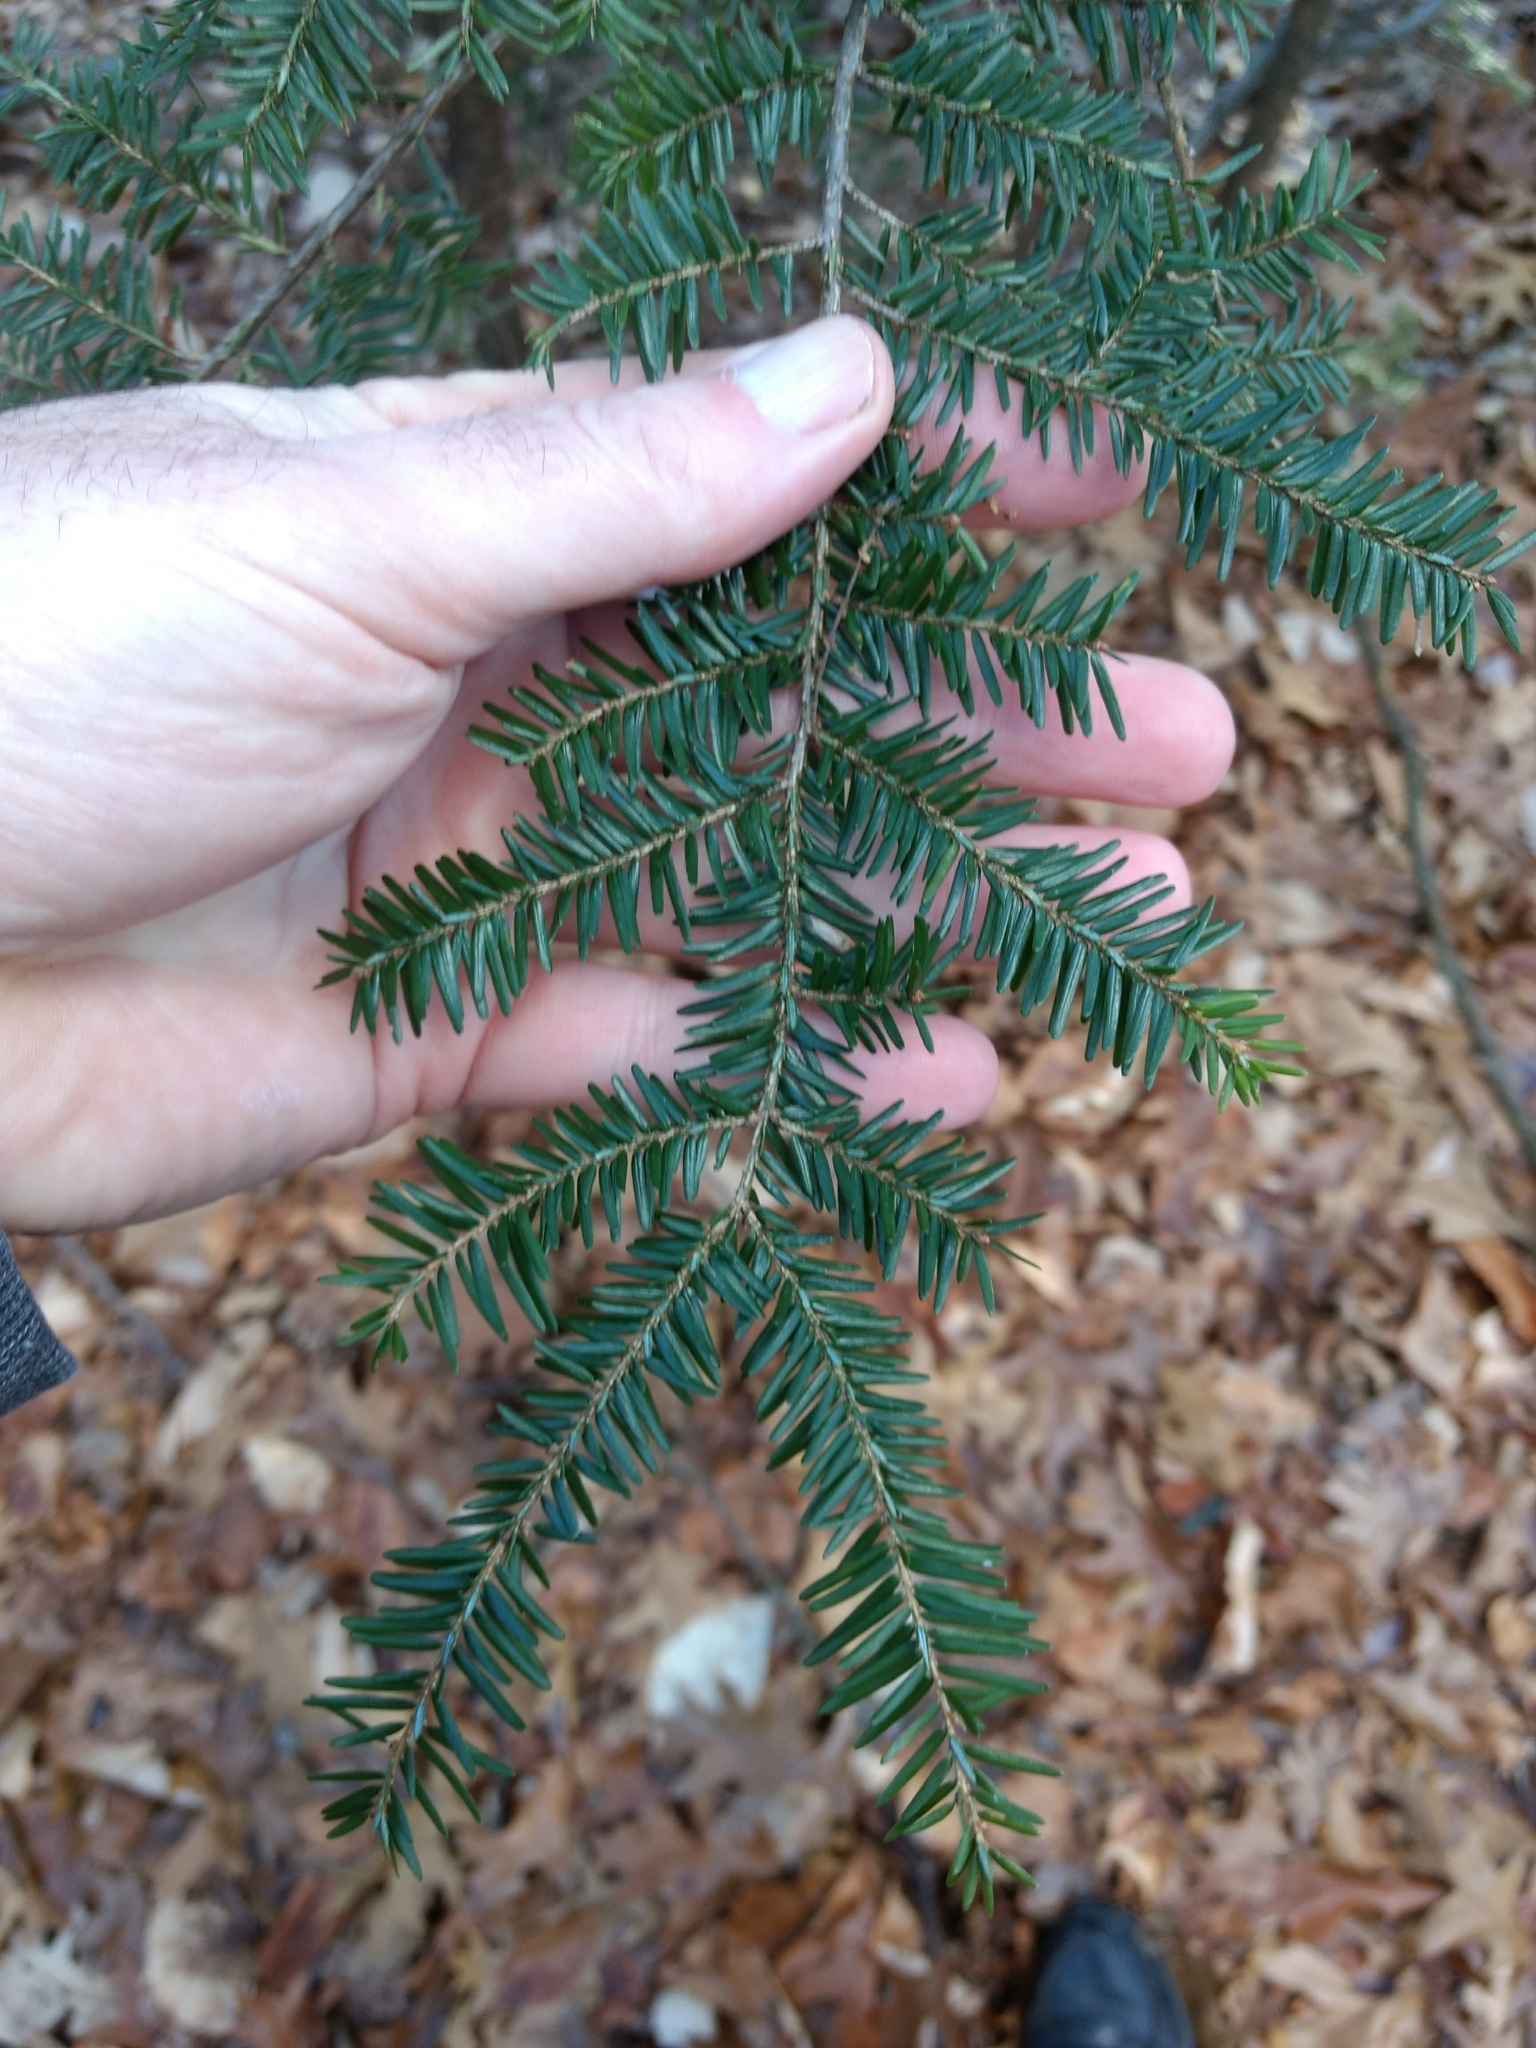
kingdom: Plantae
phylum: Tracheophyta
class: Pinopsida
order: Pinales
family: Pinaceae
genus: Tsuga
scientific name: Tsuga canadensis
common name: Eastern hemlock
